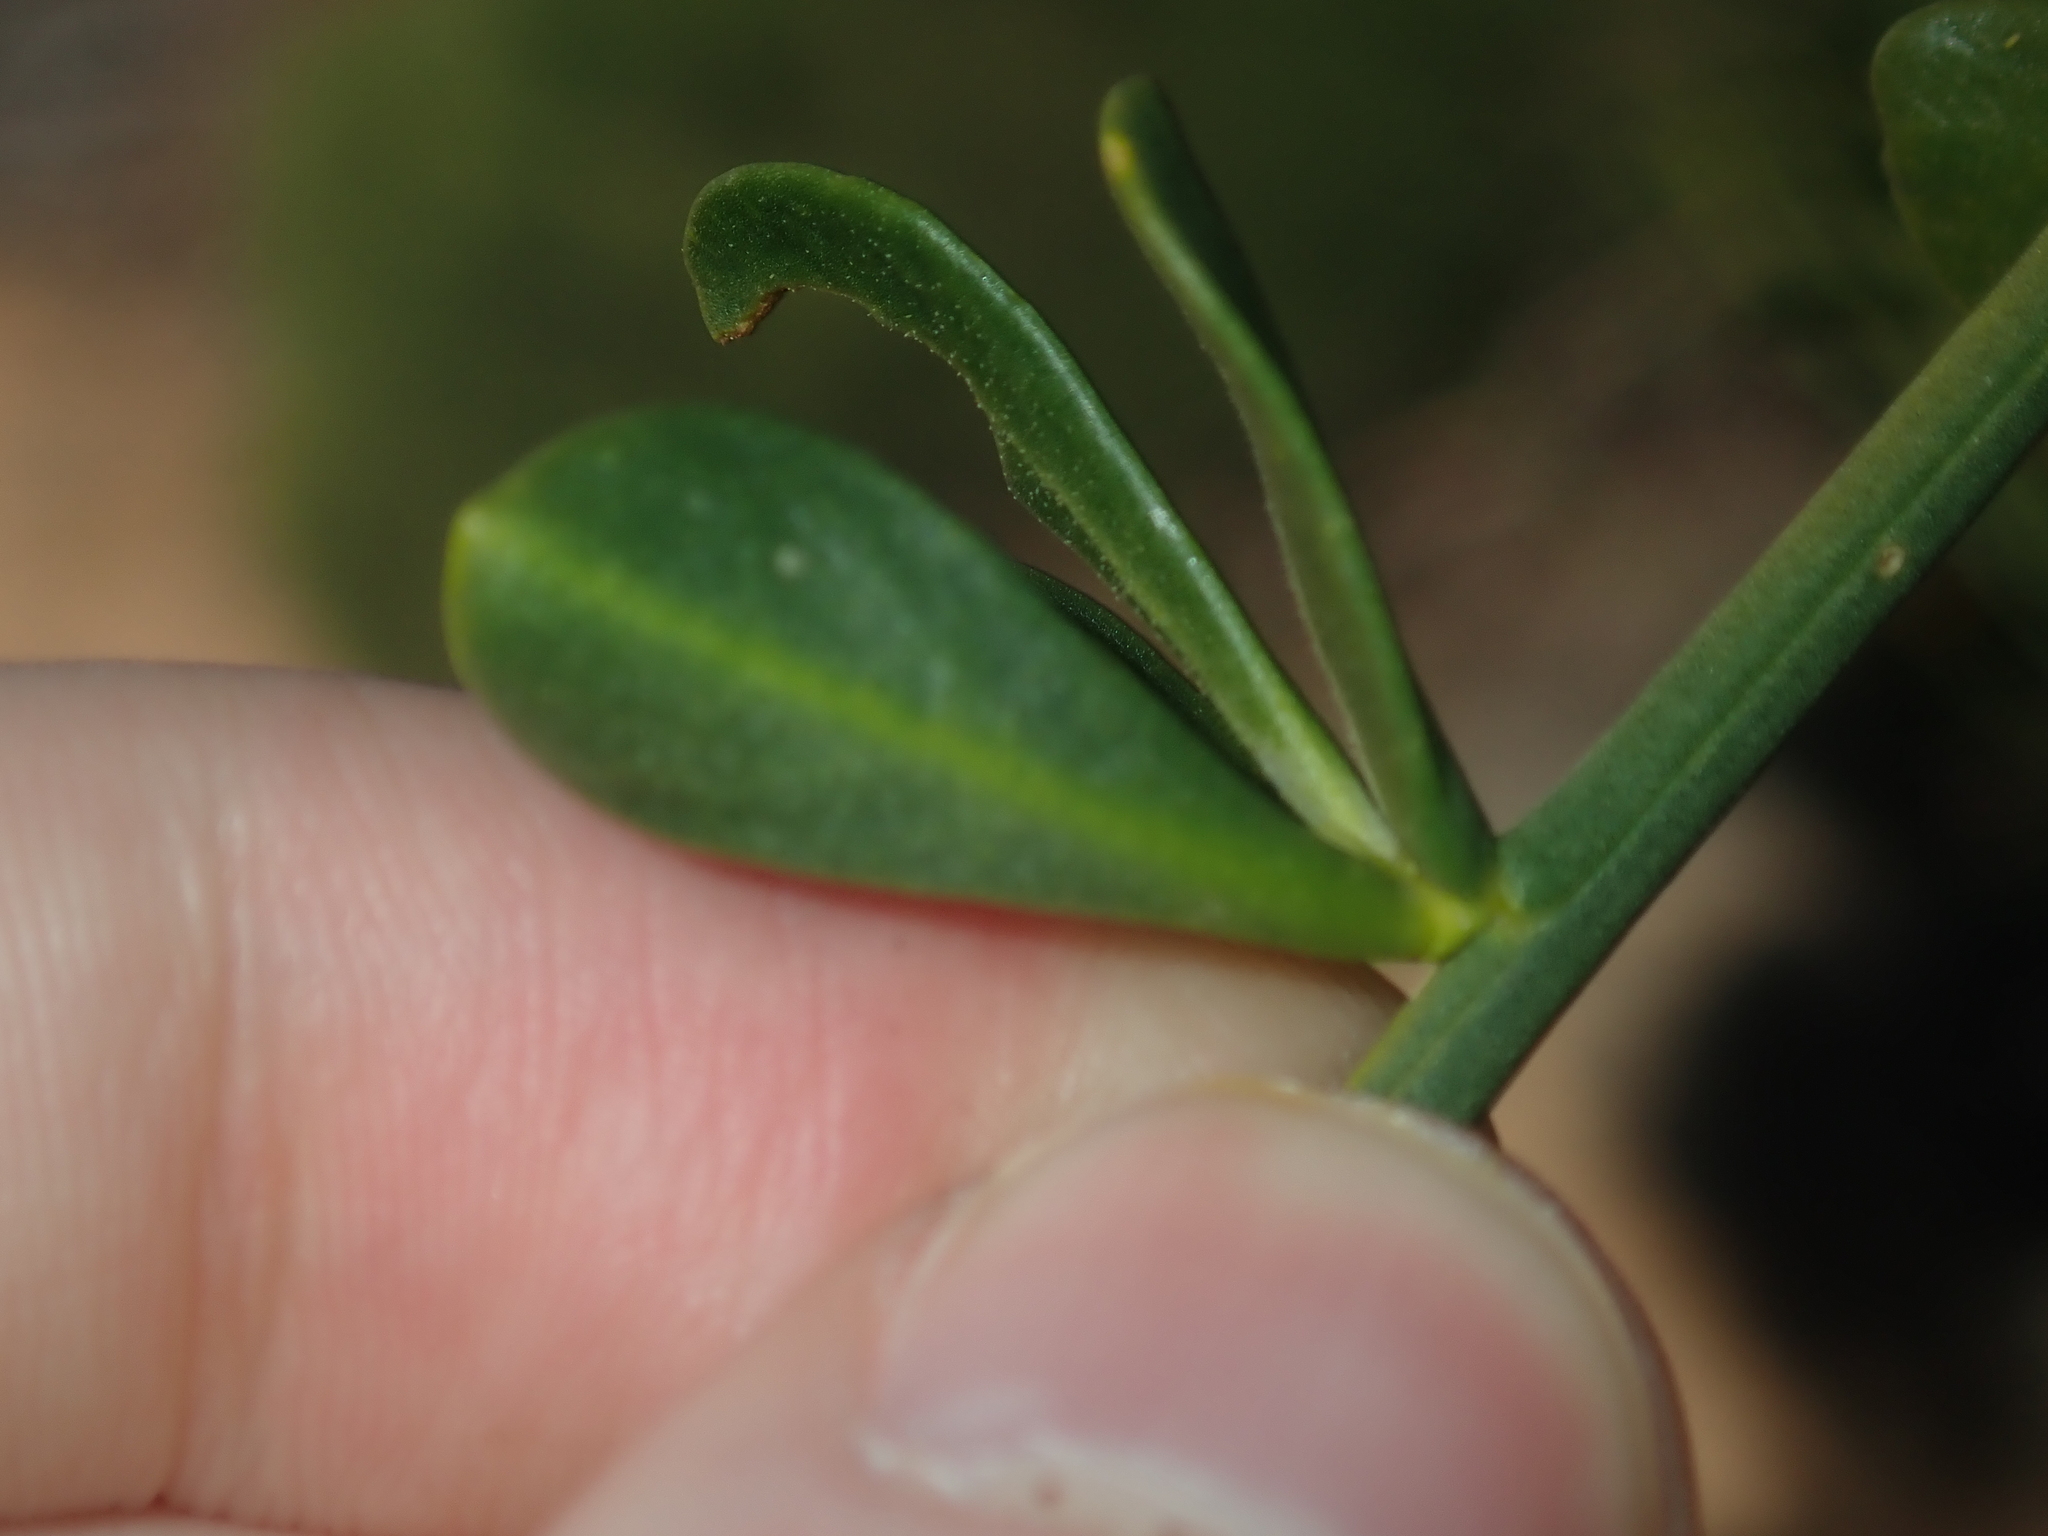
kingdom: Plantae
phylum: Tracheophyta
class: Magnoliopsida
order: Solanales
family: Solanaceae
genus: Anthocercis
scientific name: Anthocercis ilicifolia
